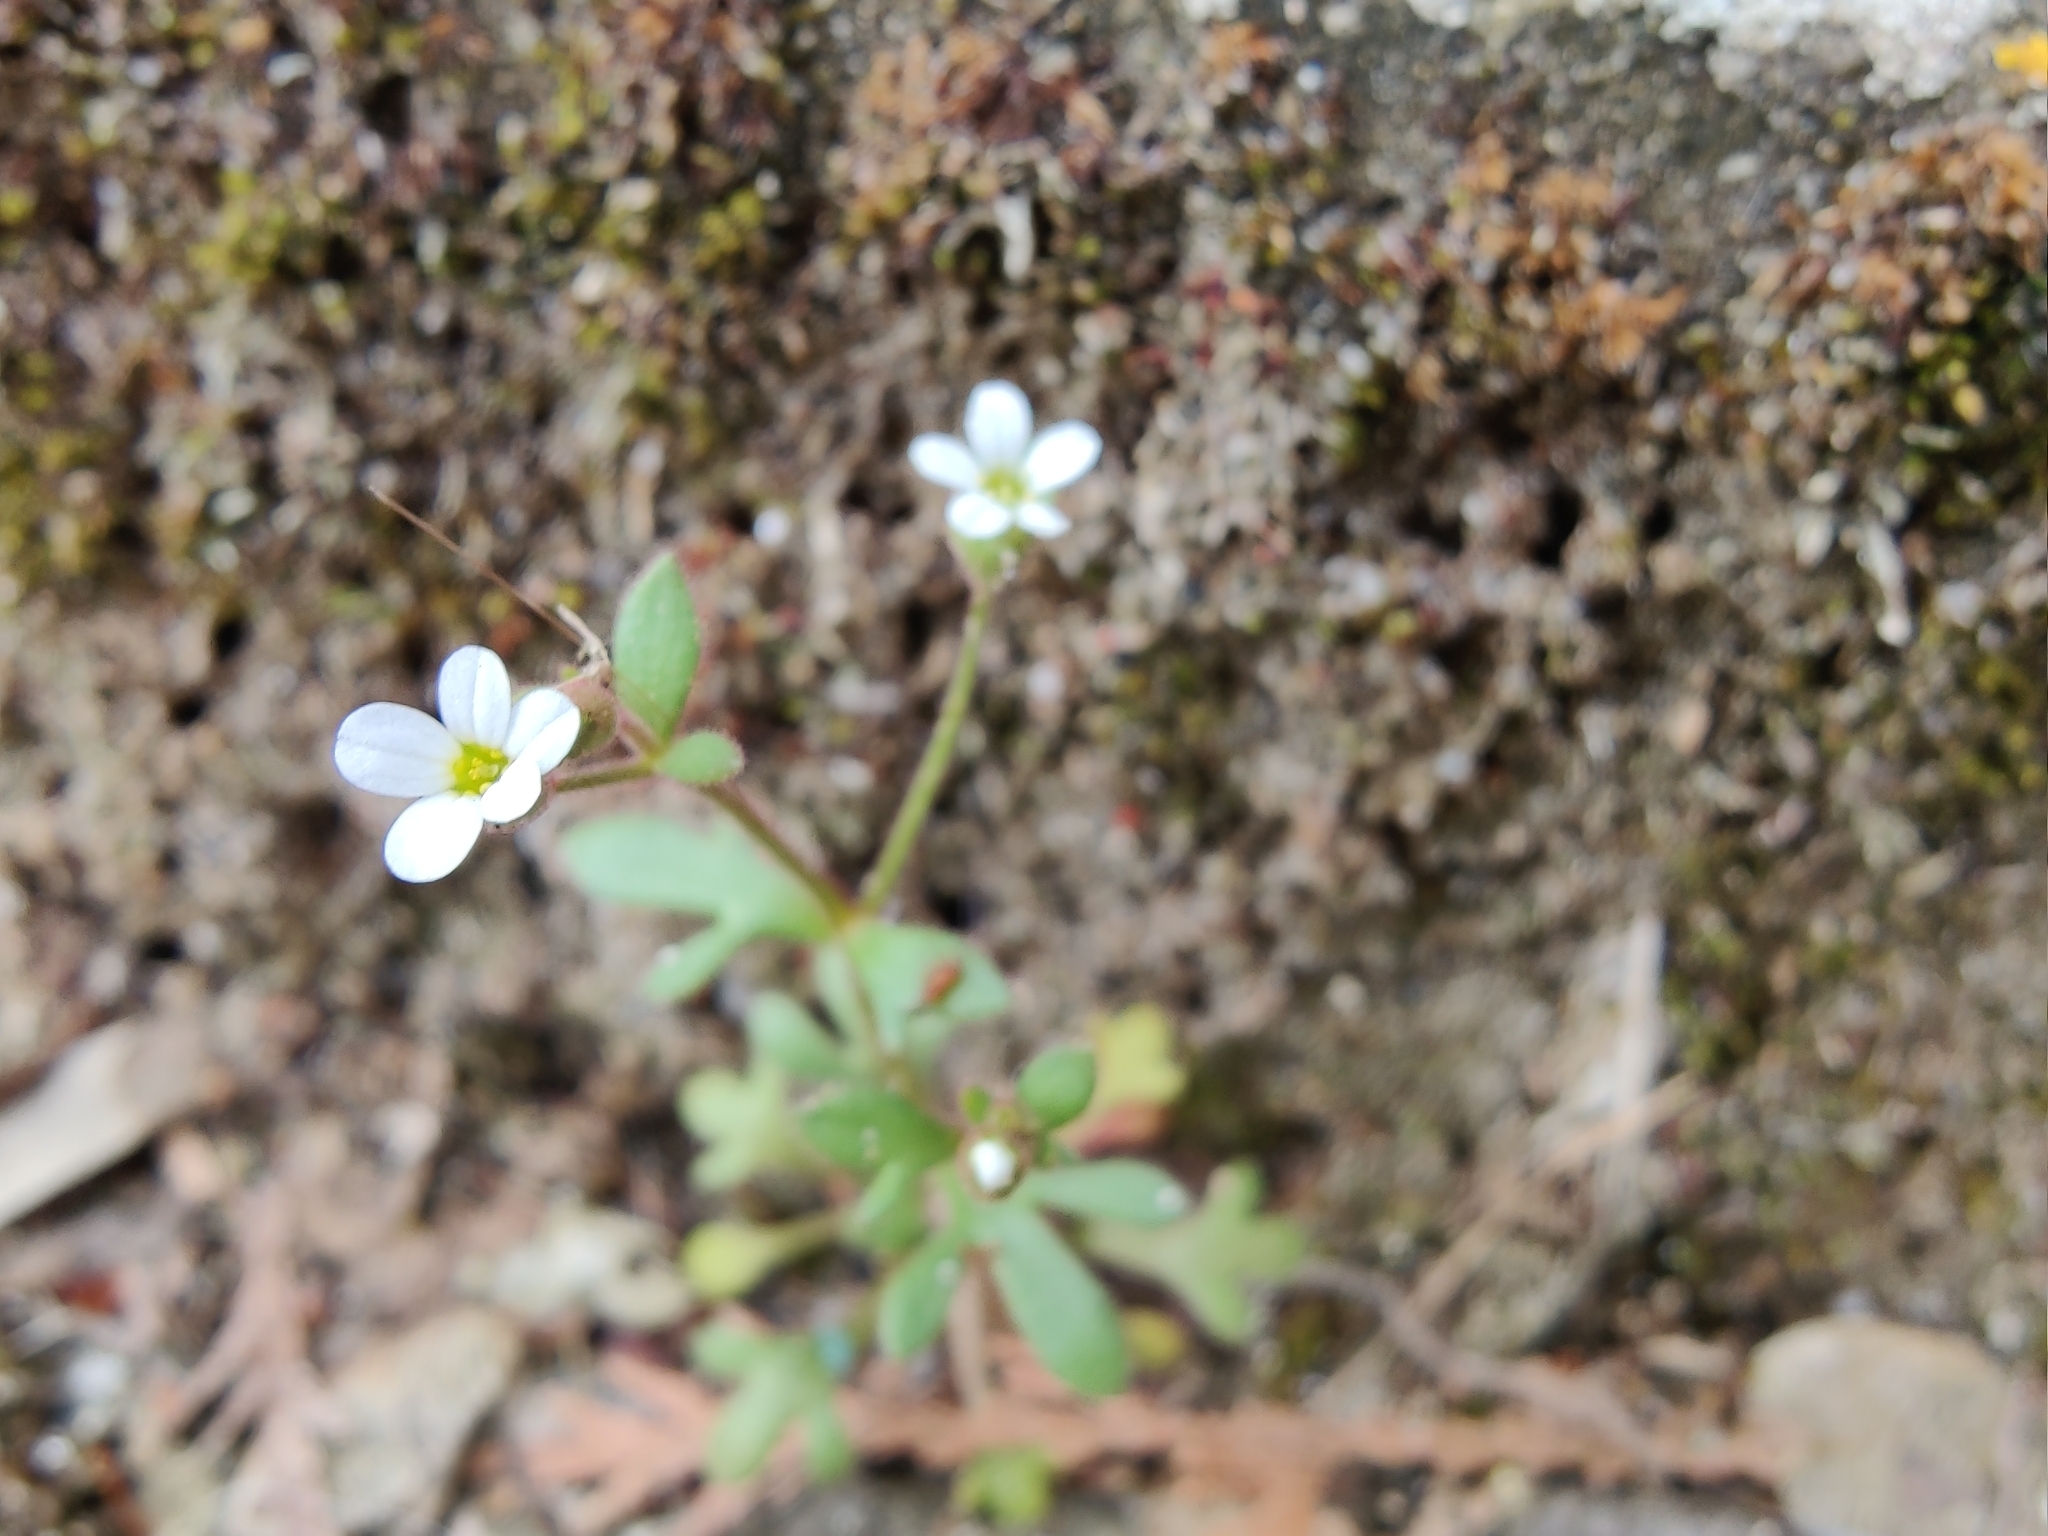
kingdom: Plantae
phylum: Tracheophyta
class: Magnoliopsida
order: Saxifragales
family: Saxifragaceae
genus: Saxifraga
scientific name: Saxifraga tridactylites
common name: Rue-leaved saxifrage
